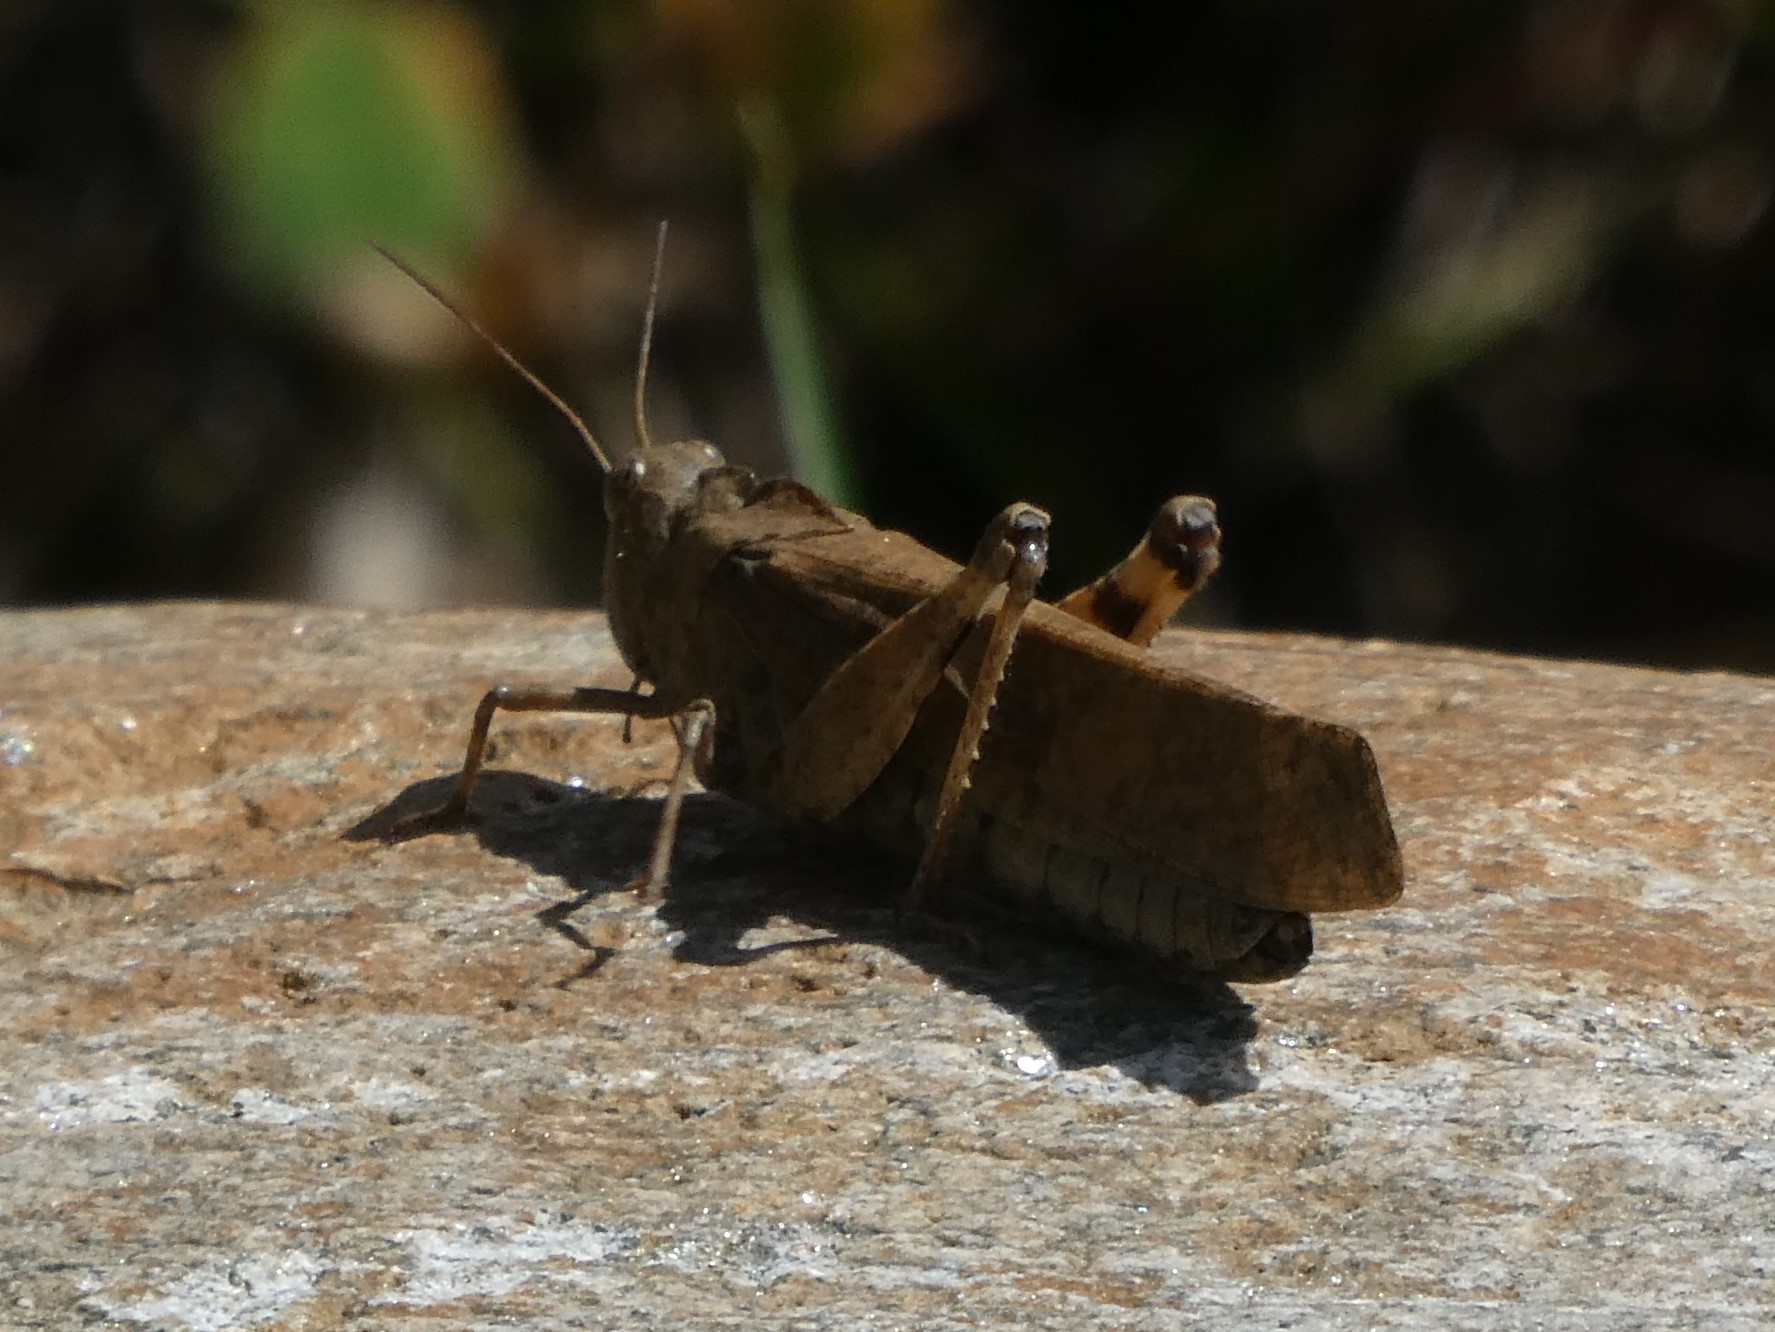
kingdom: Animalia
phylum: Arthropoda
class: Insecta
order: Orthoptera
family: Acrididae
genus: Dissosteira
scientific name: Dissosteira carolina
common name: Carolina grasshopper
